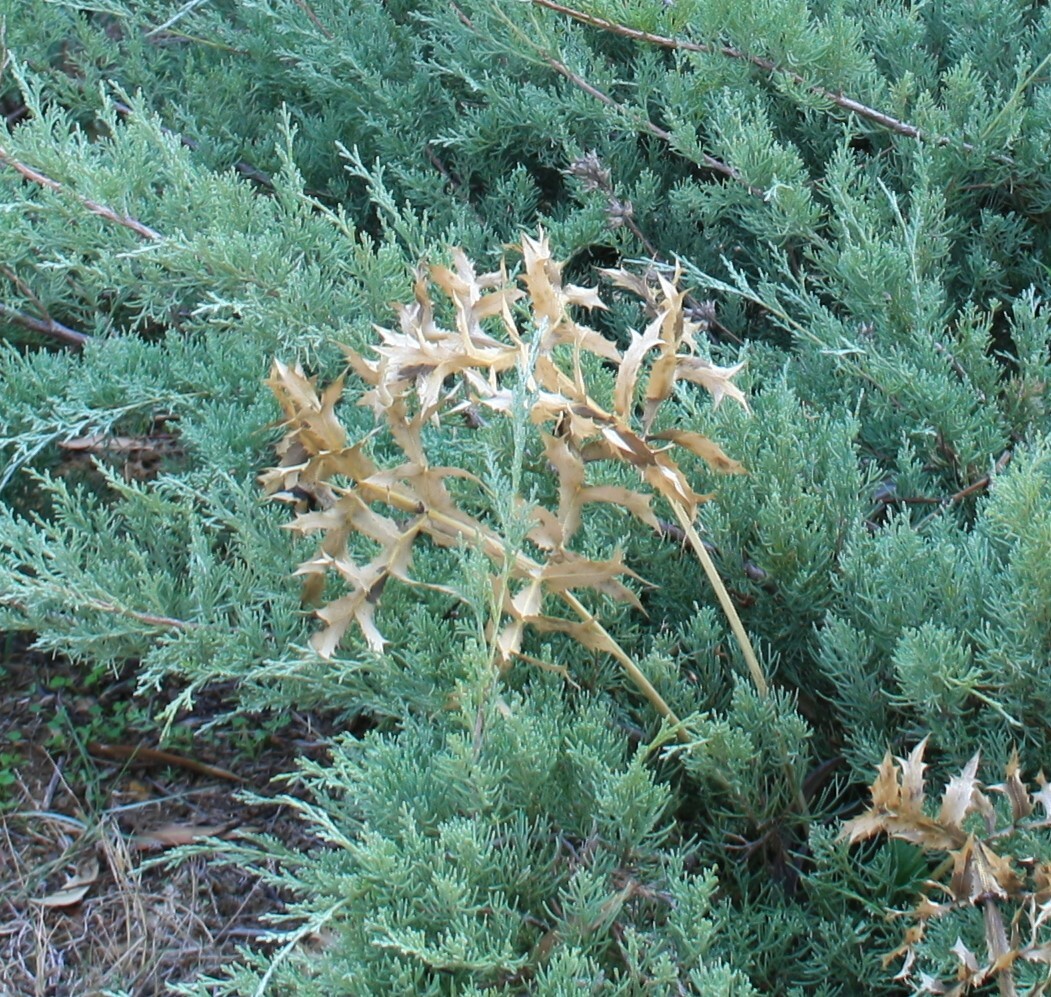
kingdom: Plantae
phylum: Tracheophyta
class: Magnoliopsida
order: Apiales
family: Apiaceae
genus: Eryngium
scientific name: Eryngium campestre
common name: Field eryngo
